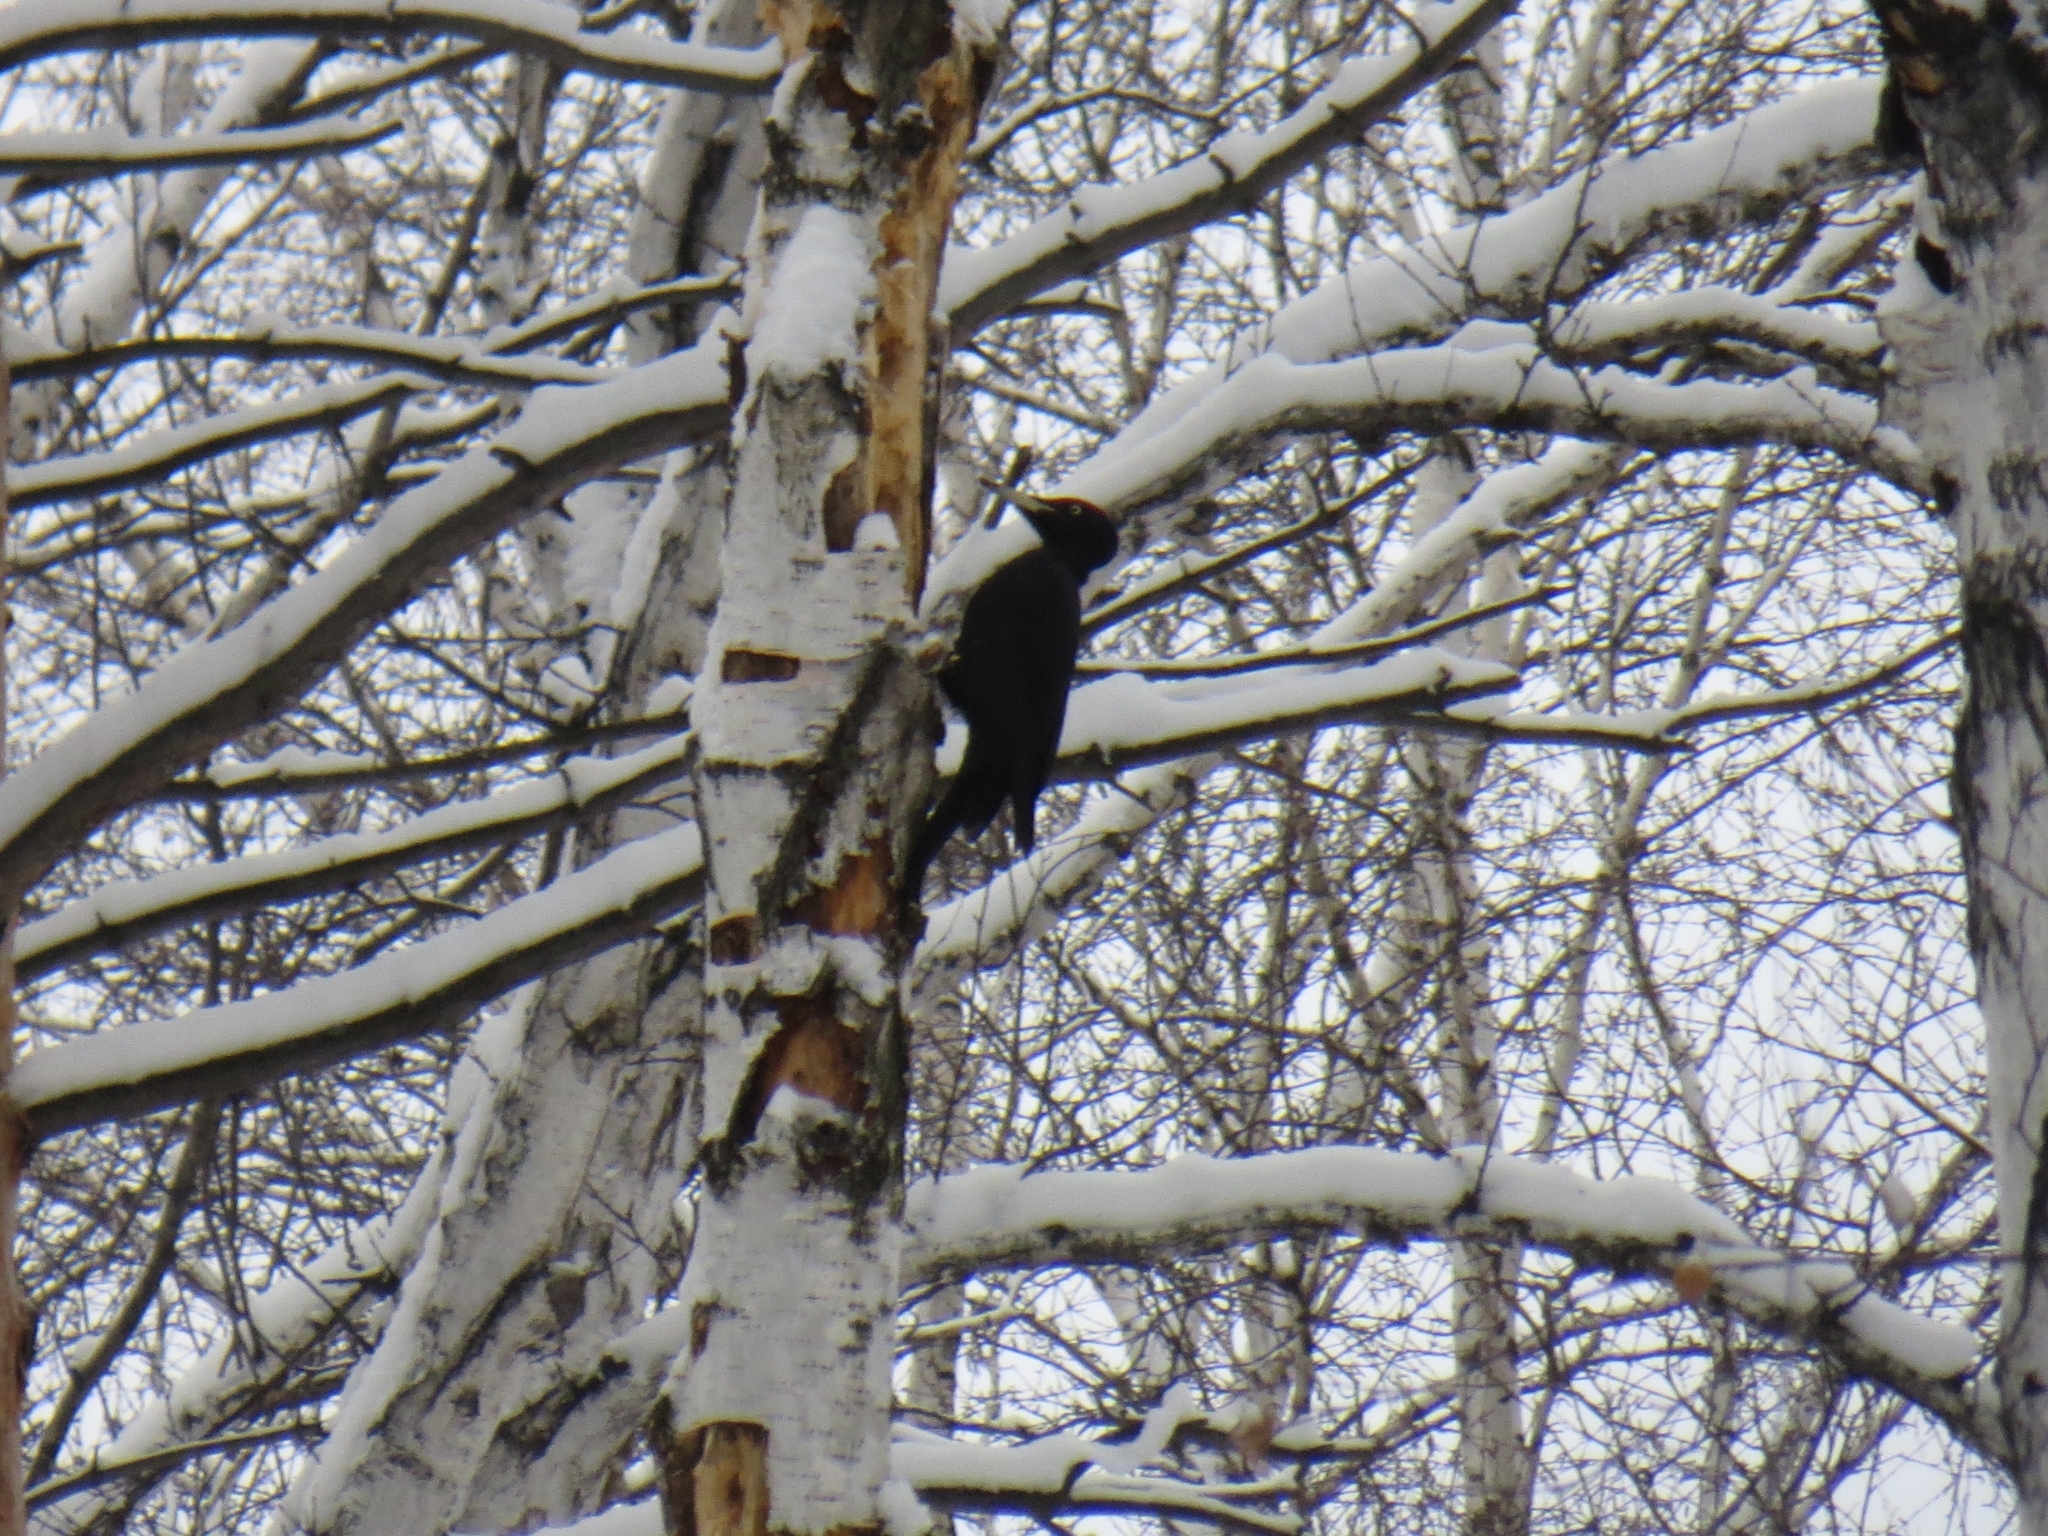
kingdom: Animalia
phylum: Chordata
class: Aves
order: Piciformes
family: Picidae
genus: Dryocopus
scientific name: Dryocopus martius
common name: Black woodpecker
